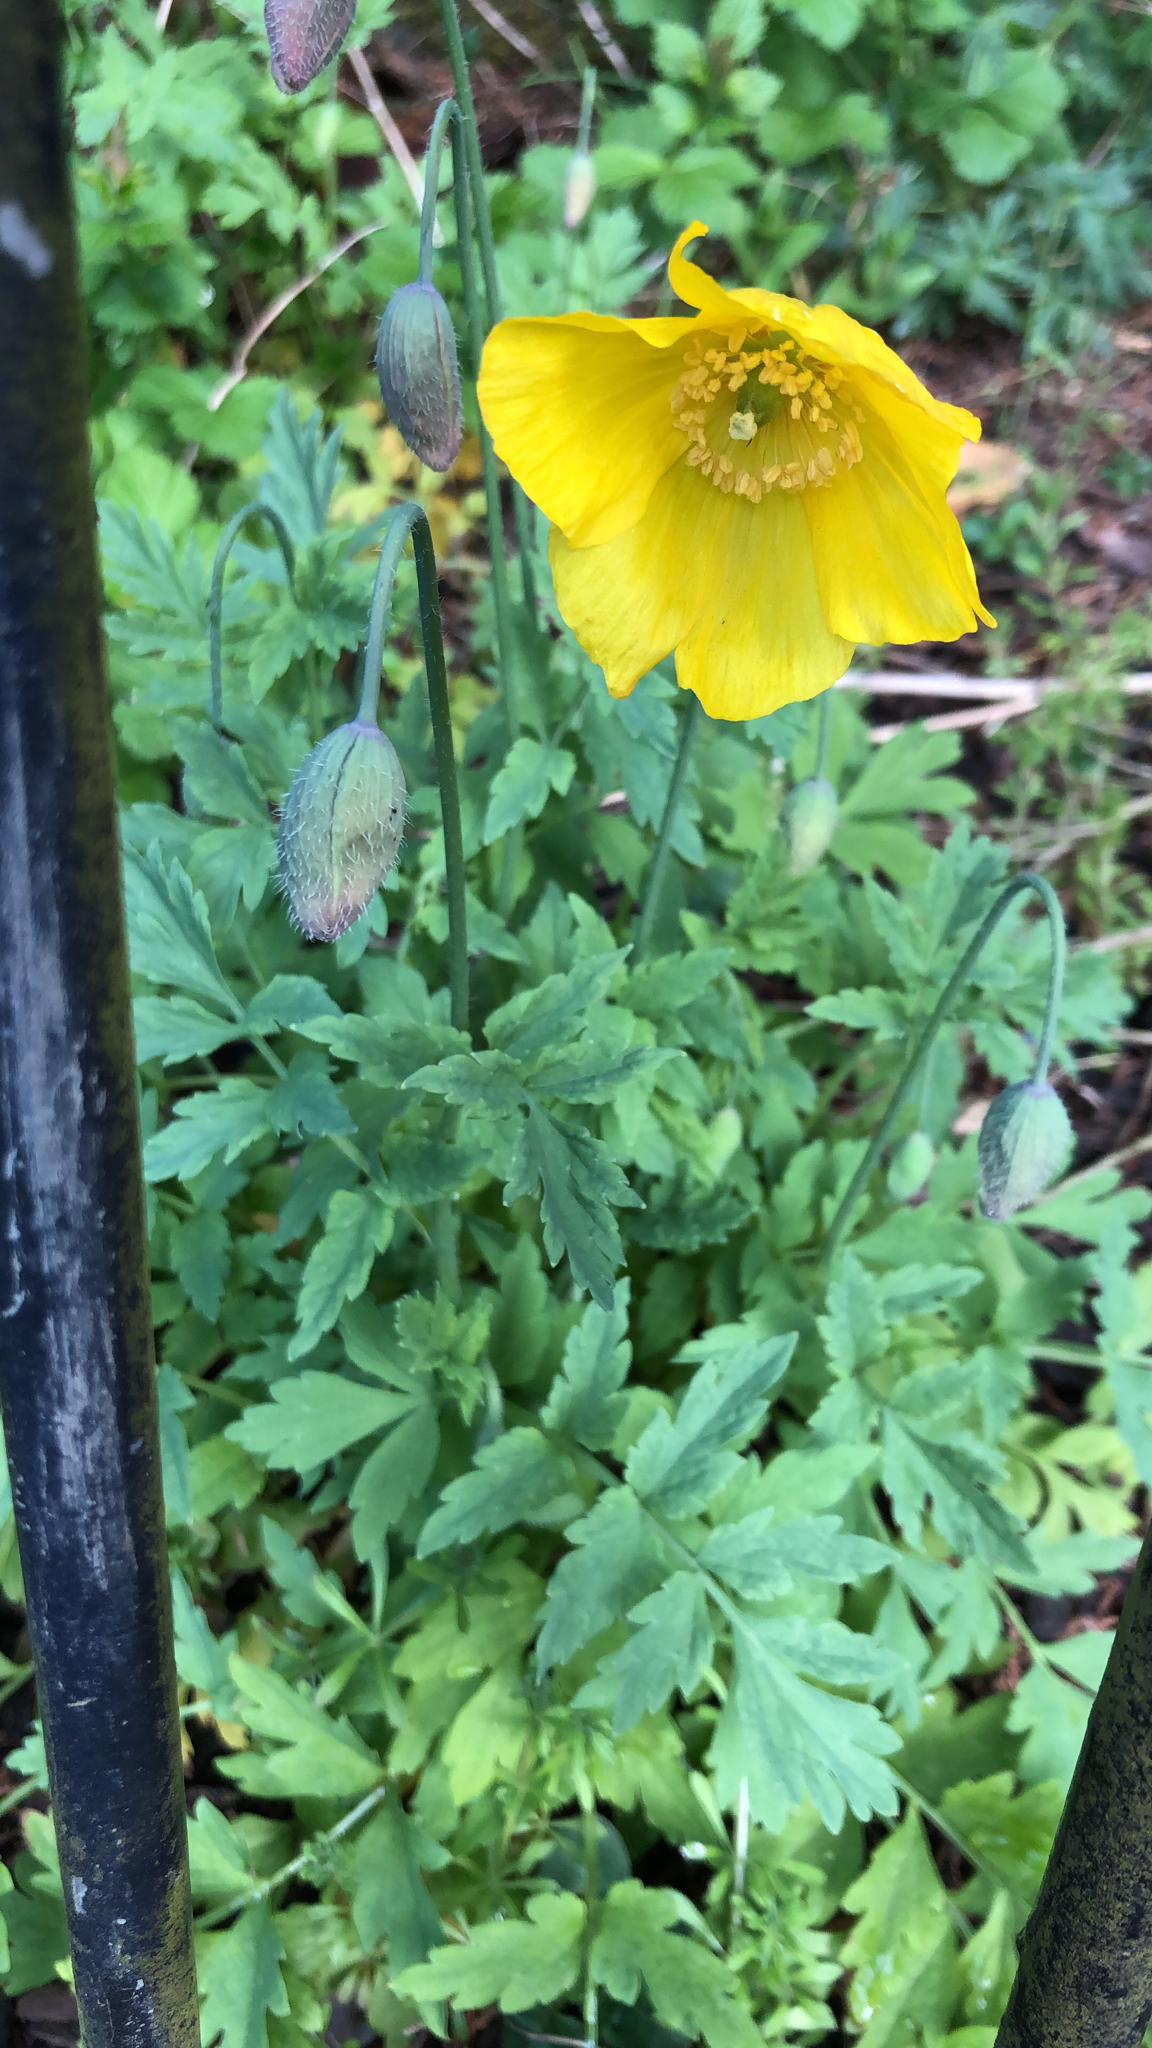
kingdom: Plantae
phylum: Tracheophyta
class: Magnoliopsida
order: Ranunculales
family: Papaveraceae
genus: Papaver
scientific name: Papaver cambricum
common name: Poppy
